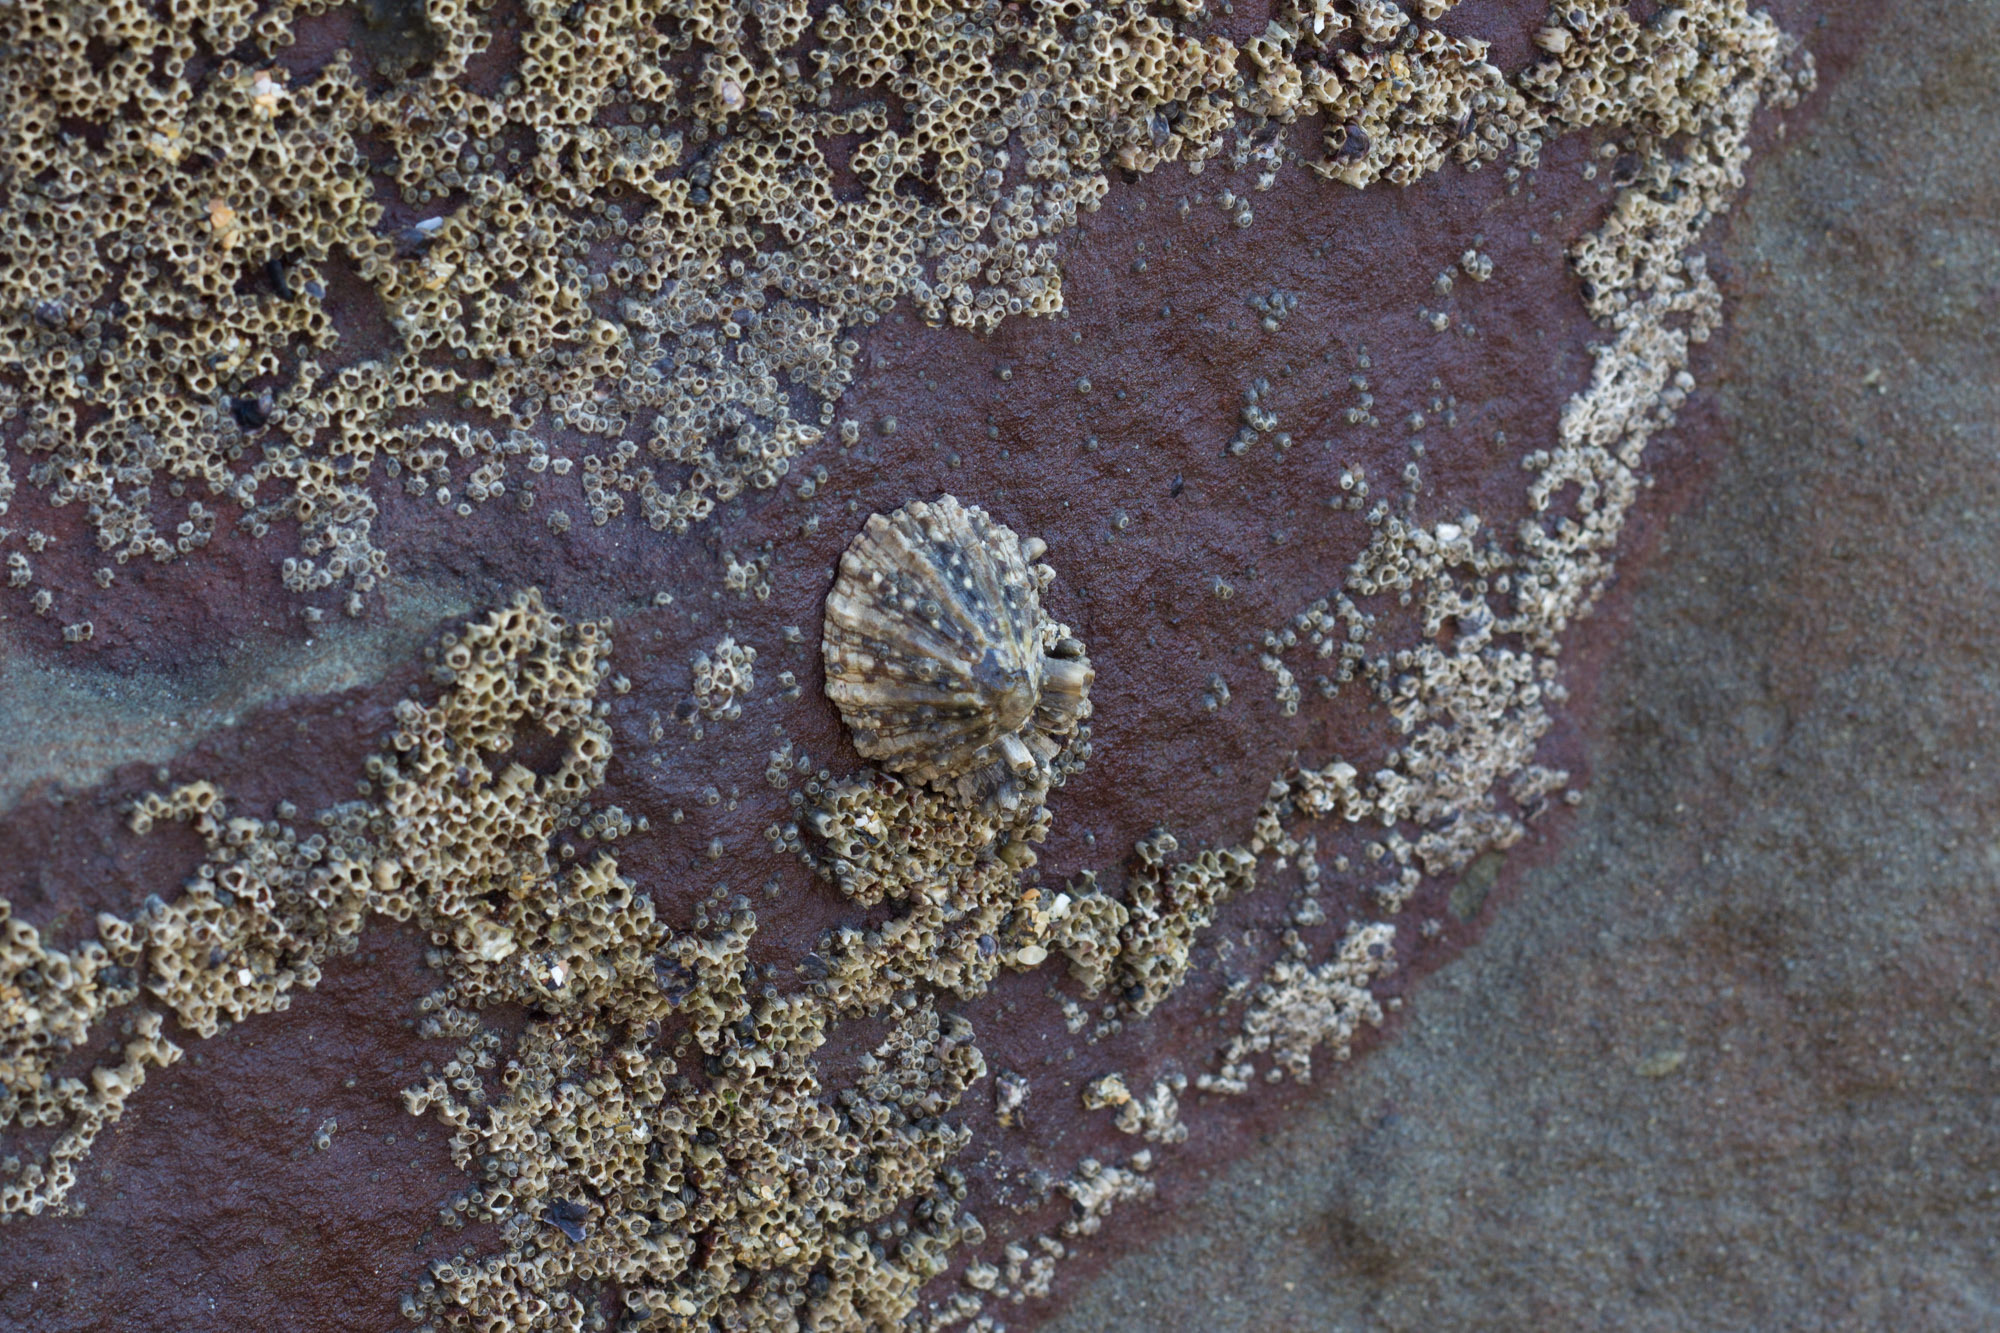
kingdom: Animalia
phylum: Mollusca
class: Gastropoda
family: Nacellidae
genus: Cellana
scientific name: Cellana ornata
